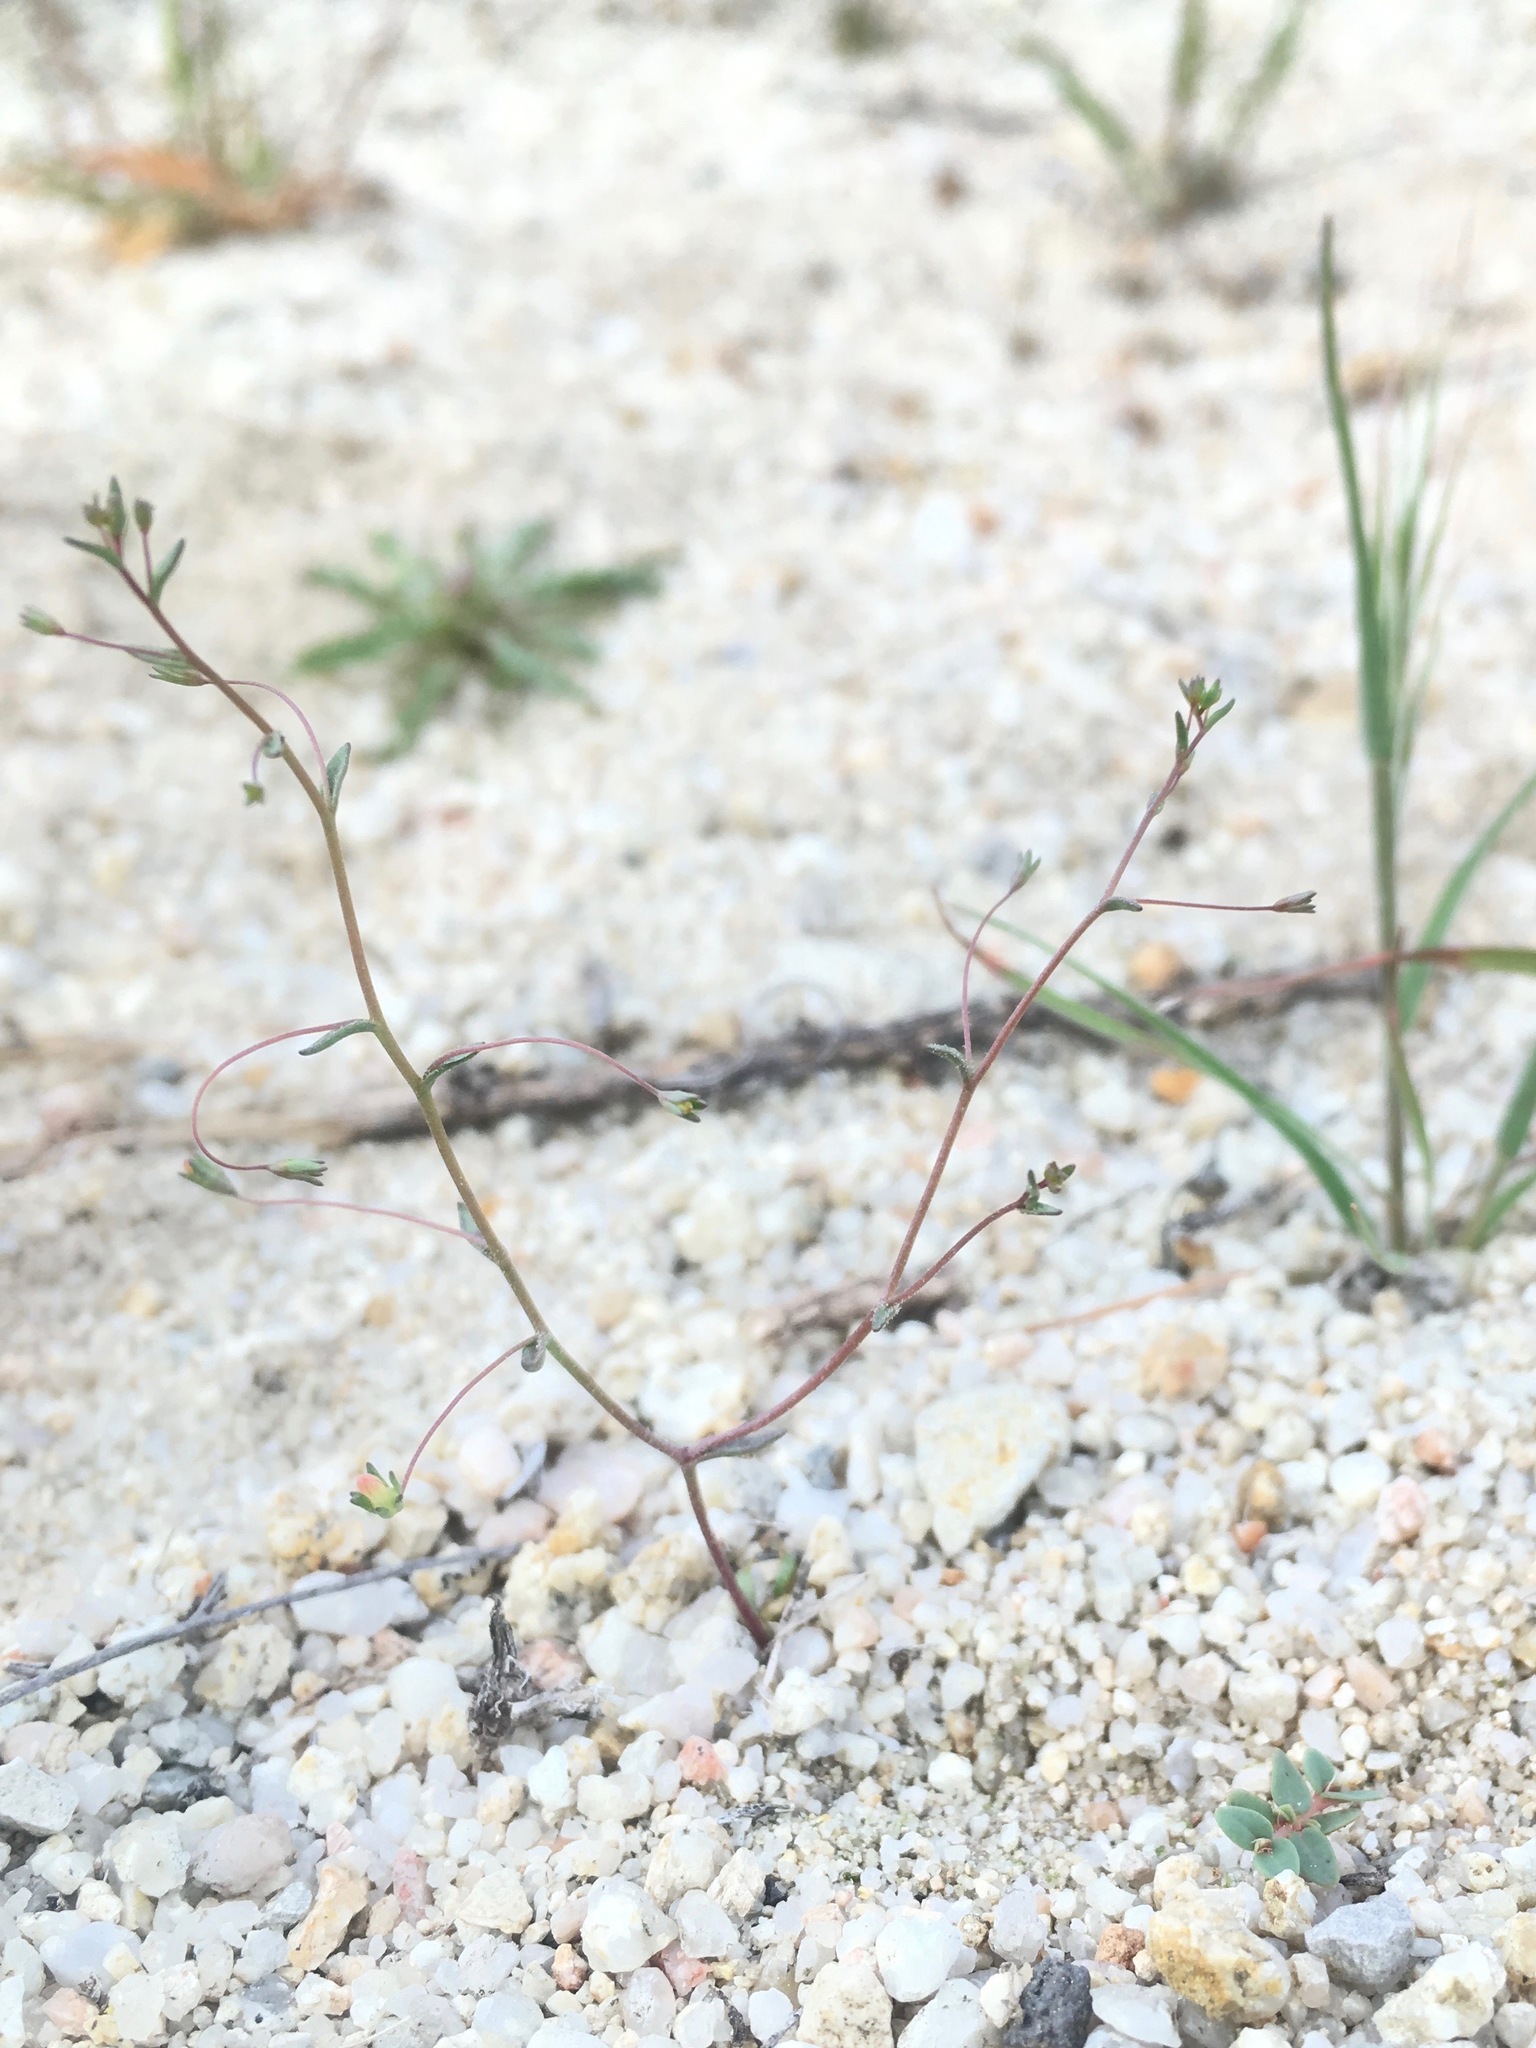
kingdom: Plantae
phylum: Tracheophyta
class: Magnoliopsida
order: Asterales
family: Campanulaceae
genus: Nemacladus
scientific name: Nemacladus secundiflorus
